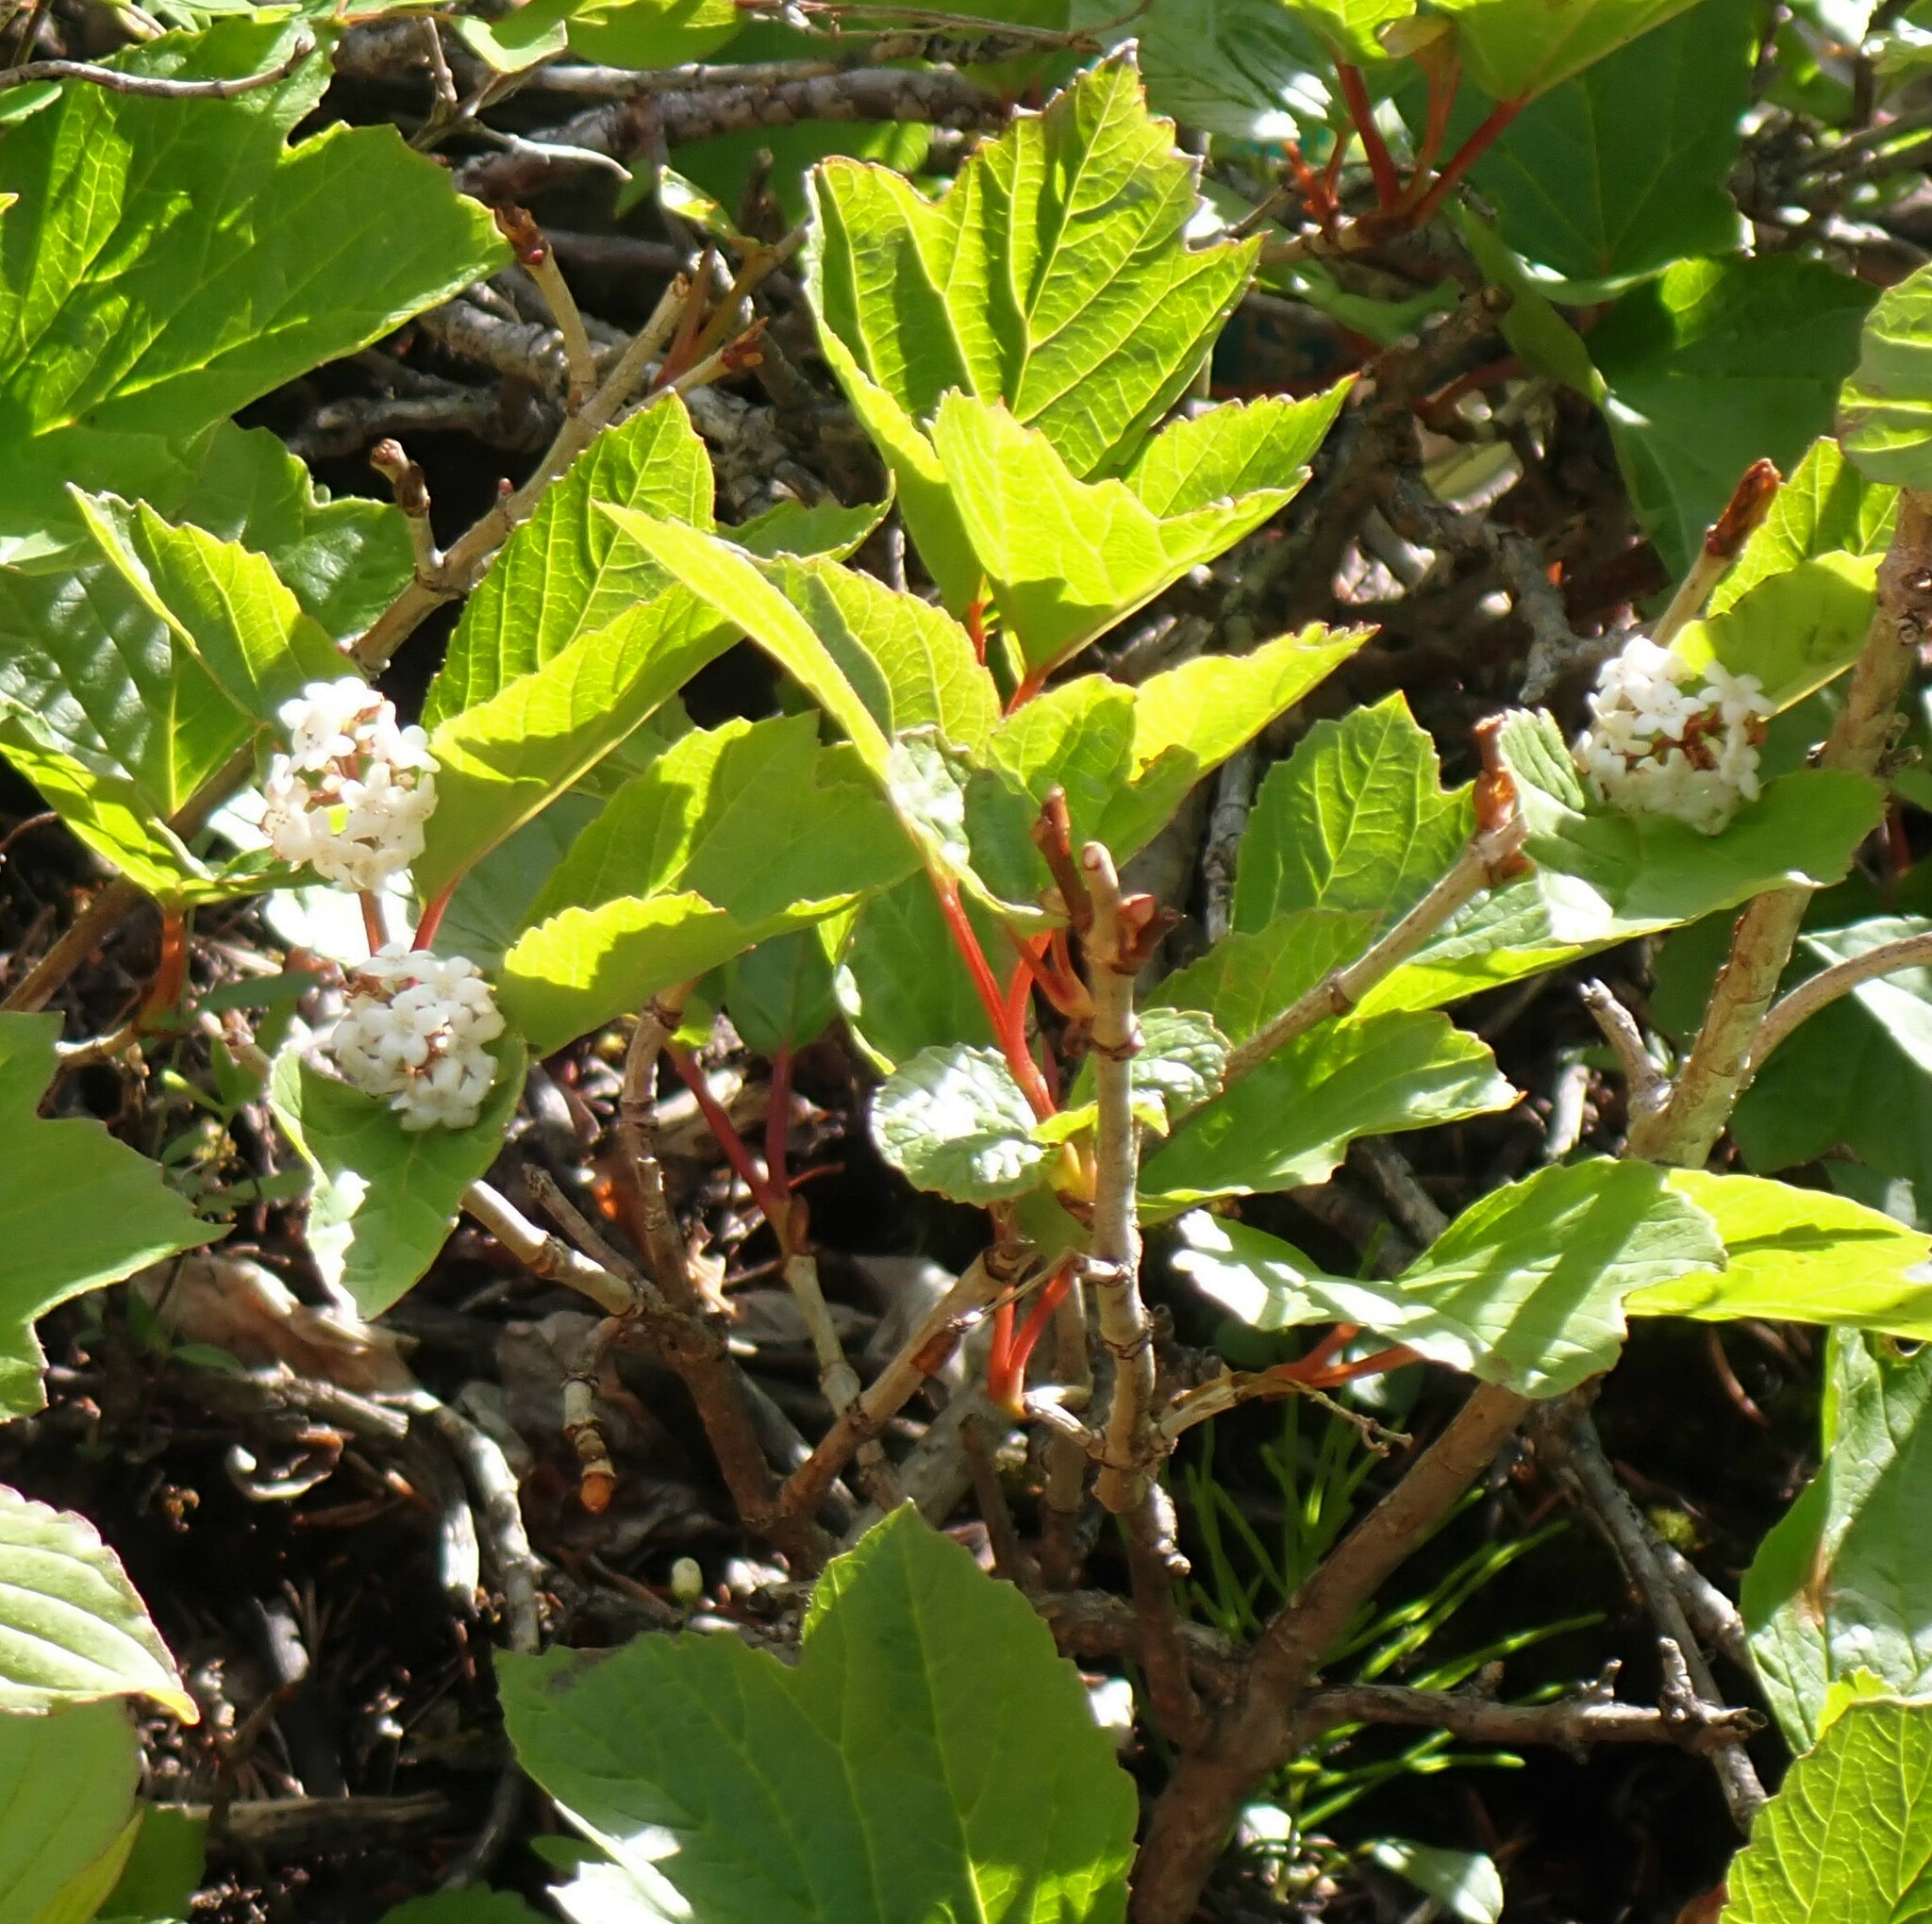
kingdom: Plantae
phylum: Tracheophyta
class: Magnoliopsida
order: Dipsacales
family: Viburnaceae
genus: Viburnum
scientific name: Viburnum edule
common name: Mooseberry
